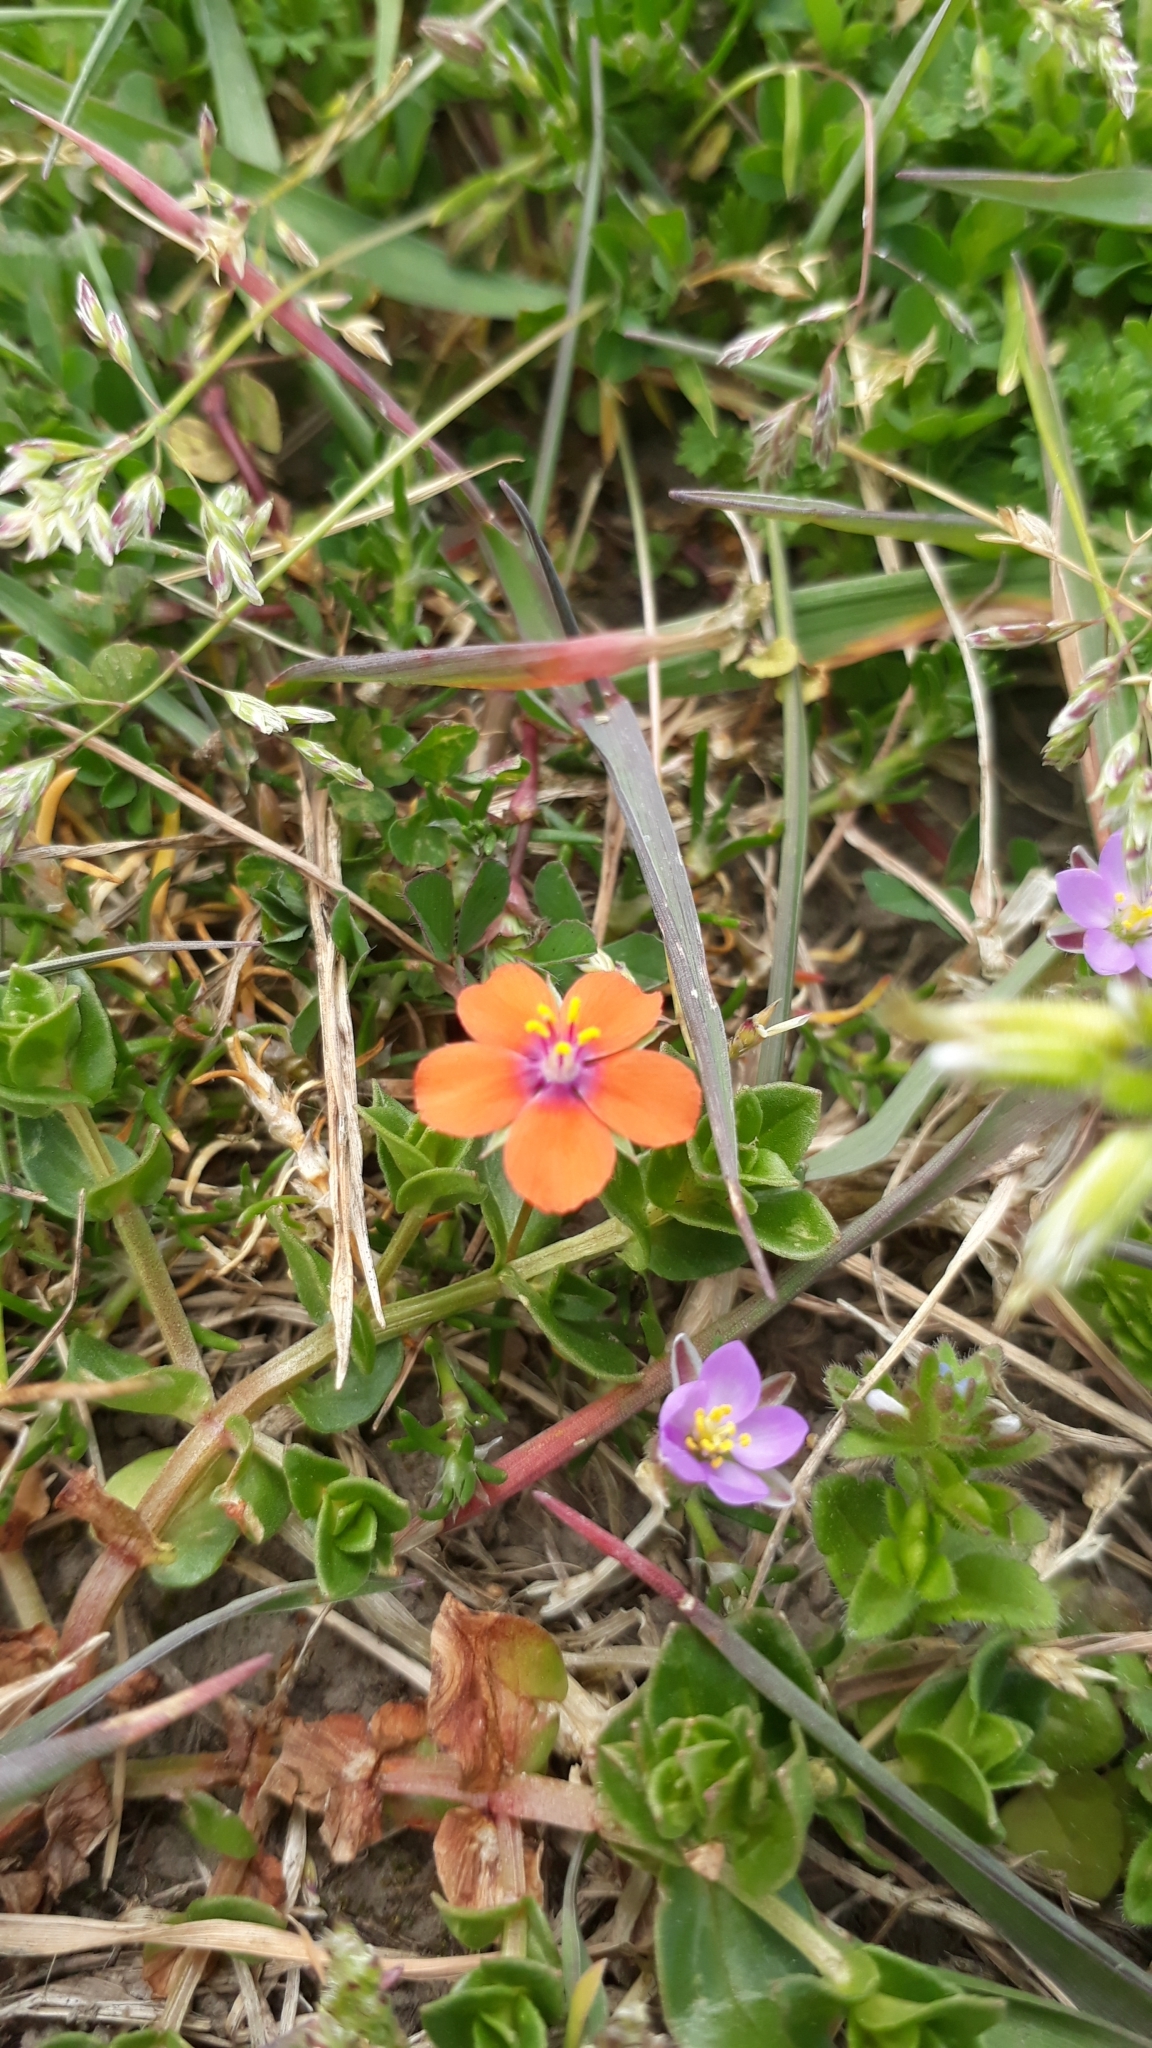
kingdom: Plantae
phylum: Tracheophyta
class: Magnoliopsida
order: Ericales
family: Primulaceae
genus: Lysimachia
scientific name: Lysimachia arvensis
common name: Scarlet pimpernel
